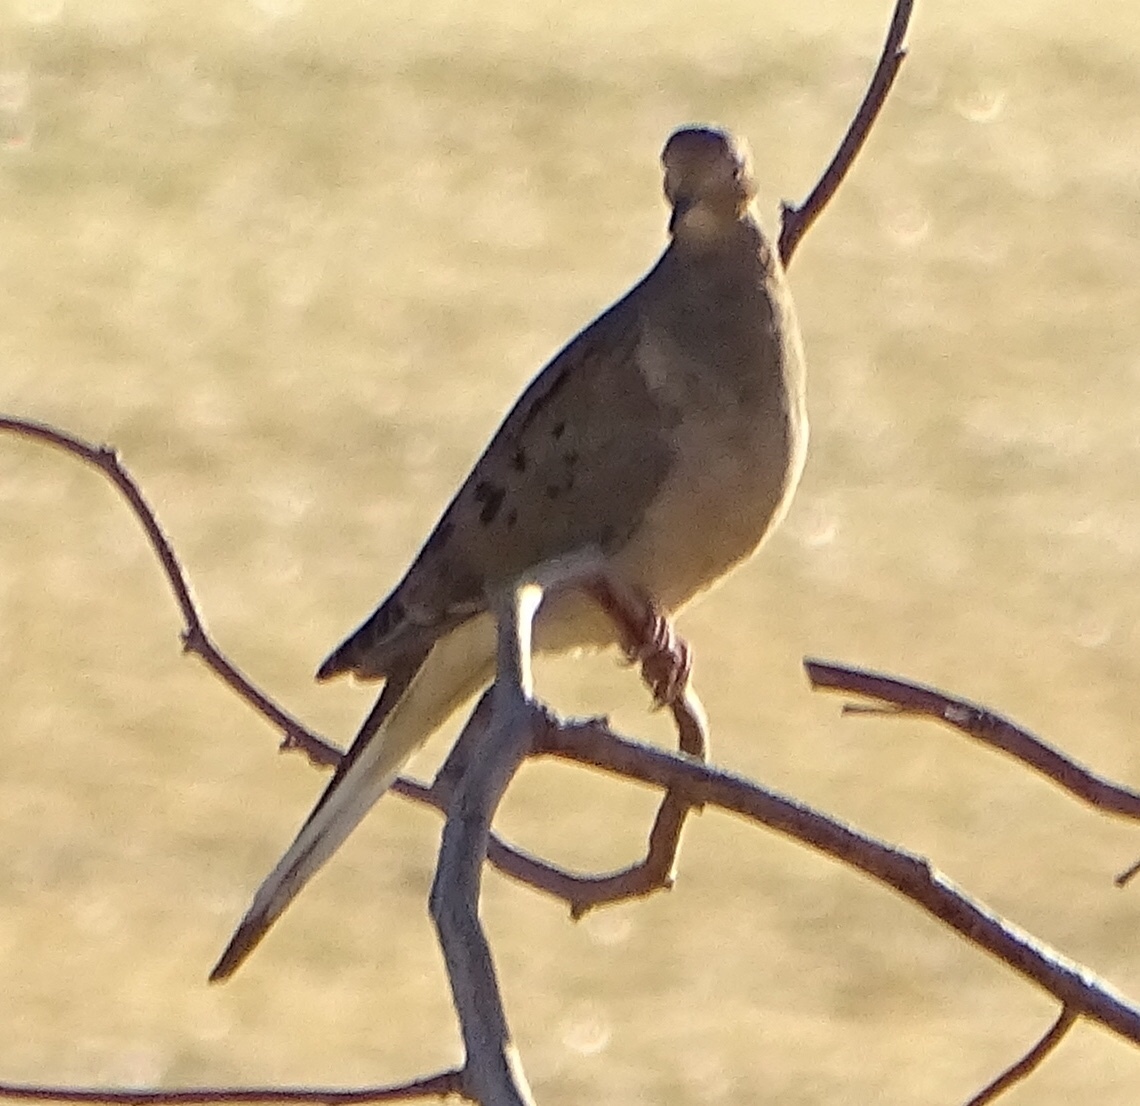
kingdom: Animalia
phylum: Chordata
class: Aves
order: Columbiformes
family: Columbidae
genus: Zenaida
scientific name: Zenaida macroura
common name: Mourning dove
